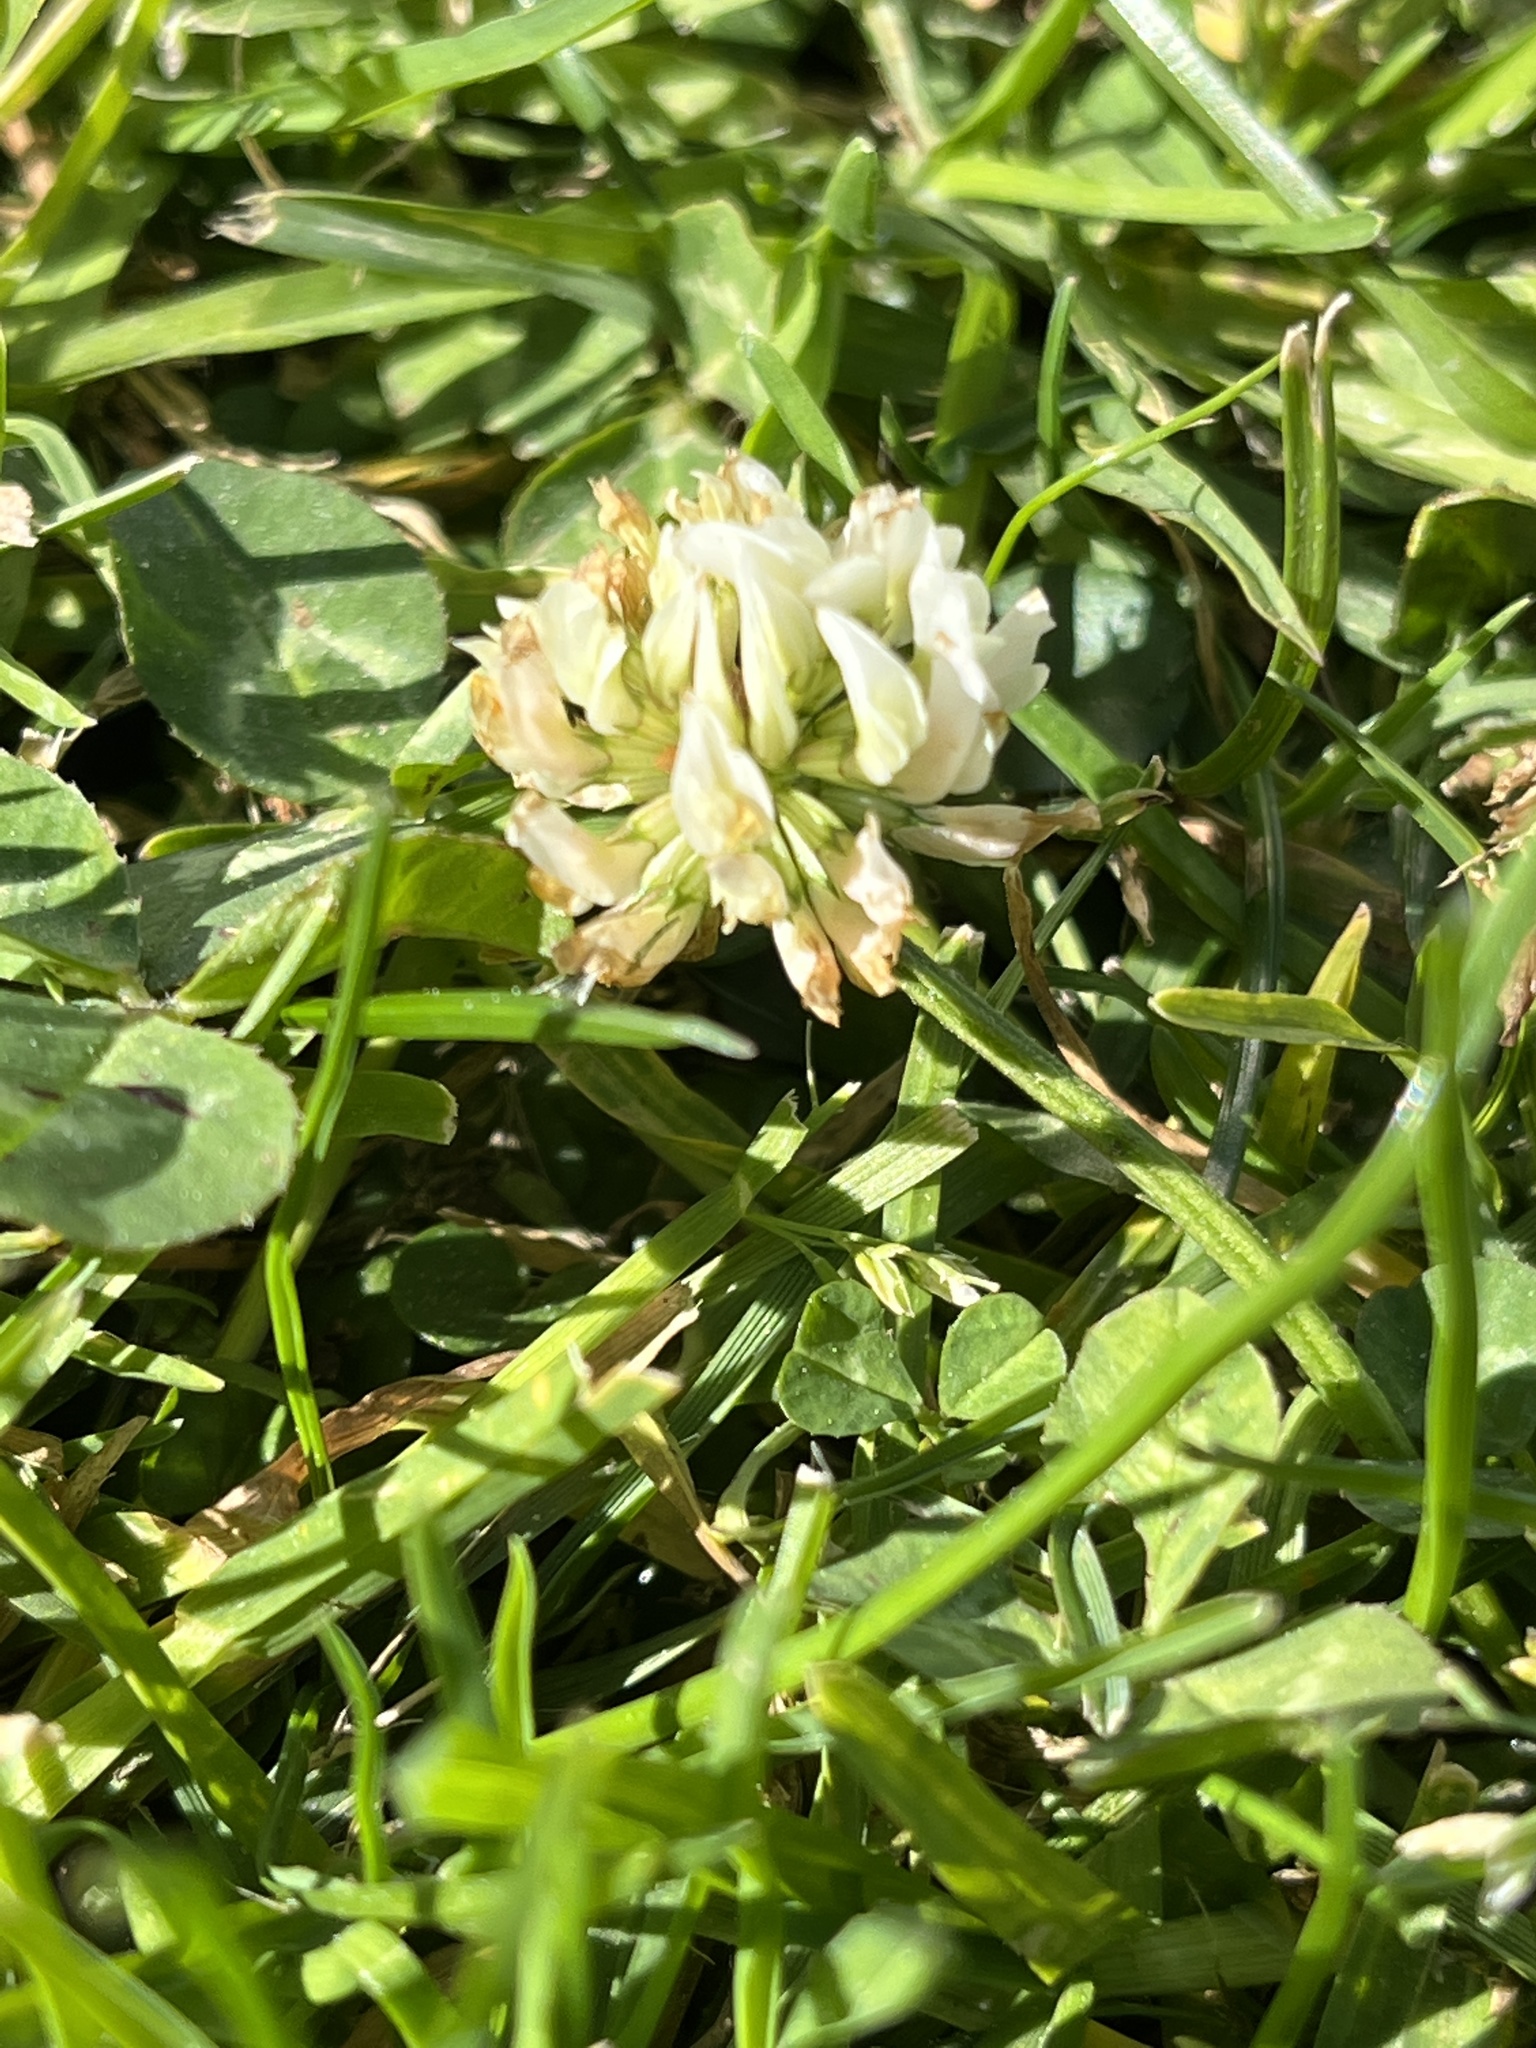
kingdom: Plantae
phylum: Tracheophyta
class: Magnoliopsida
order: Fabales
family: Fabaceae
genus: Trifolium
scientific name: Trifolium repens
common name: White clover
